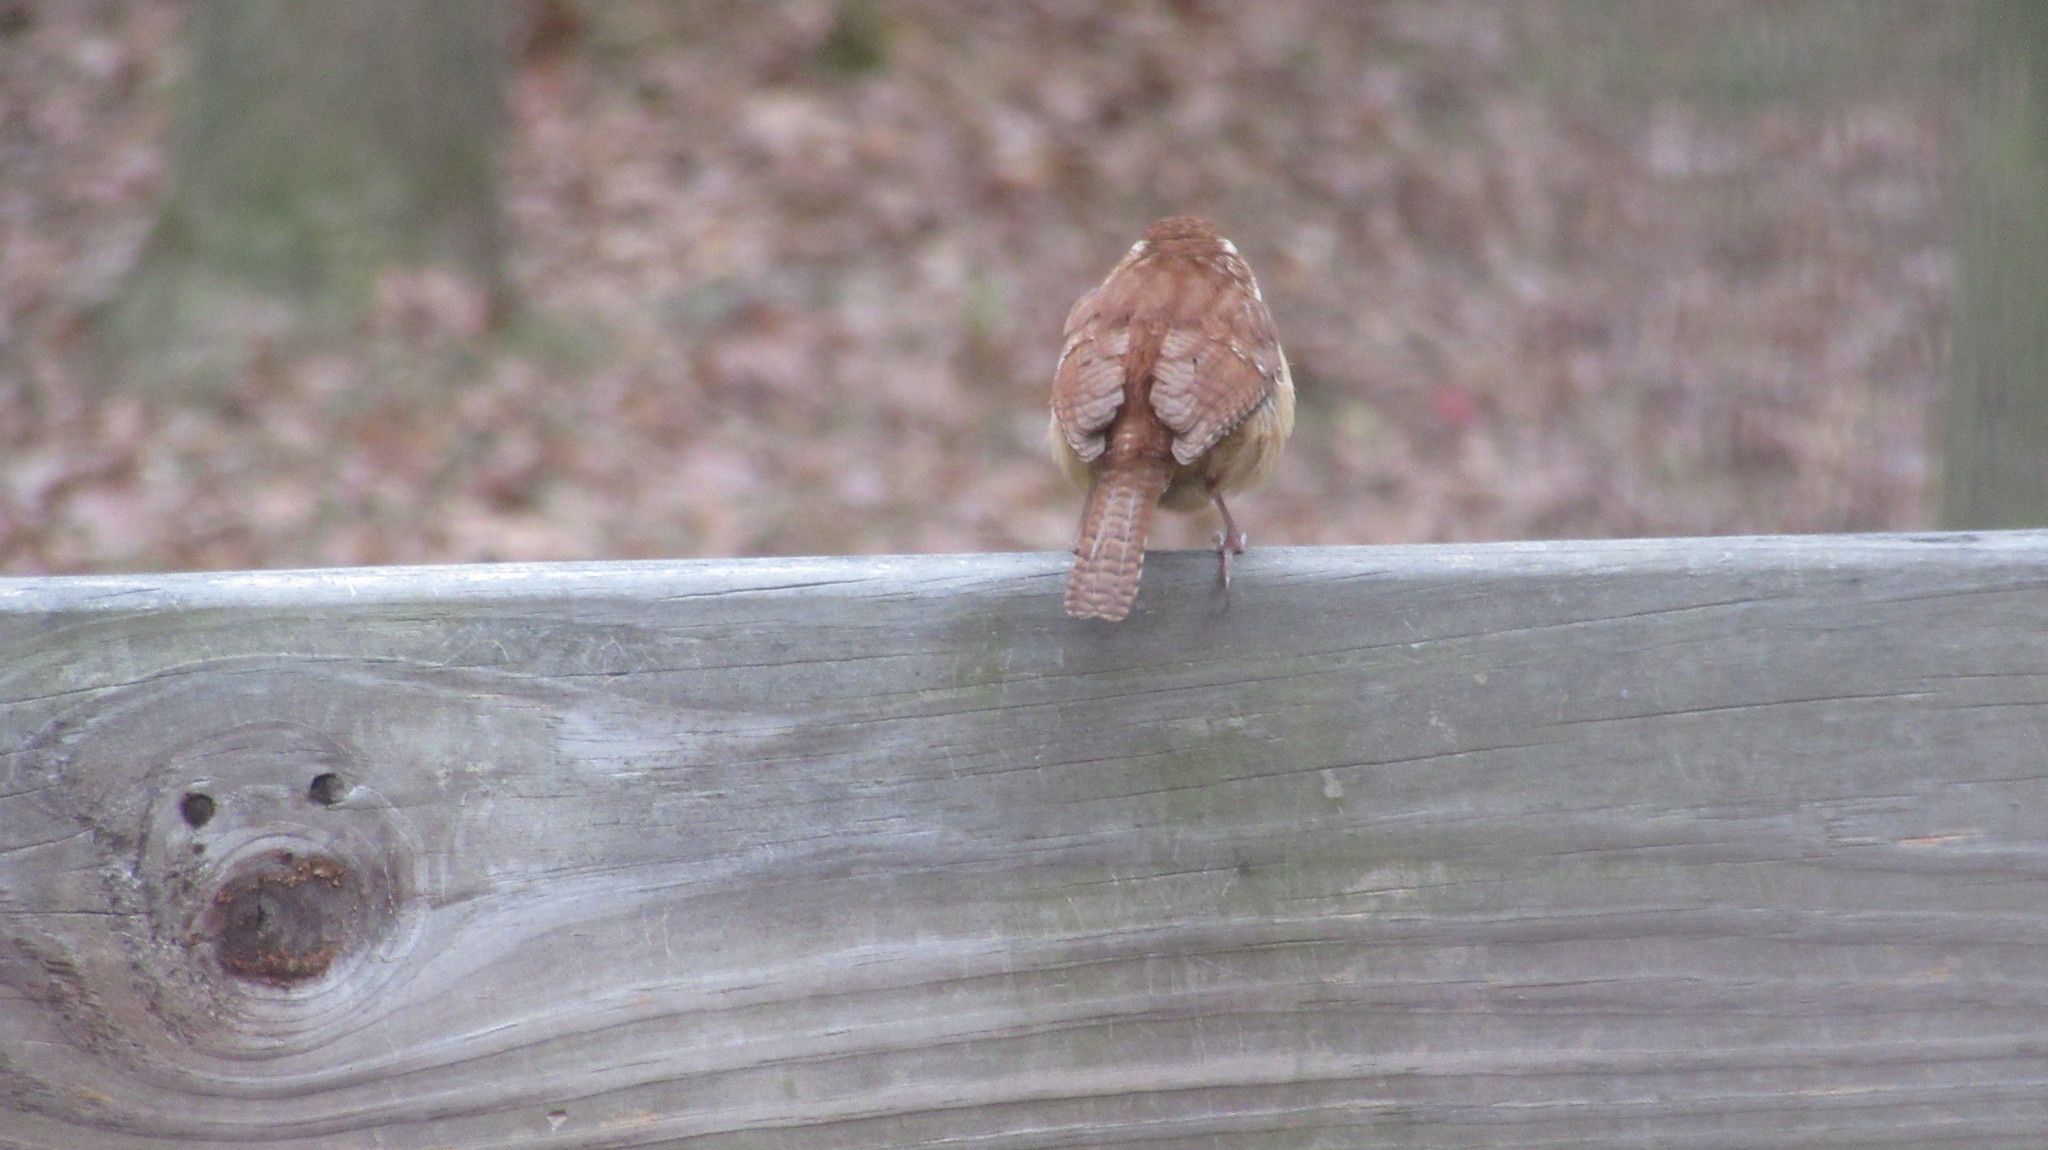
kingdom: Animalia
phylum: Chordata
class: Aves
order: Passeriformes
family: Troglodytidae
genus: Thryothorus
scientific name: Thryothorus ludovicianus
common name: Carolina wren
